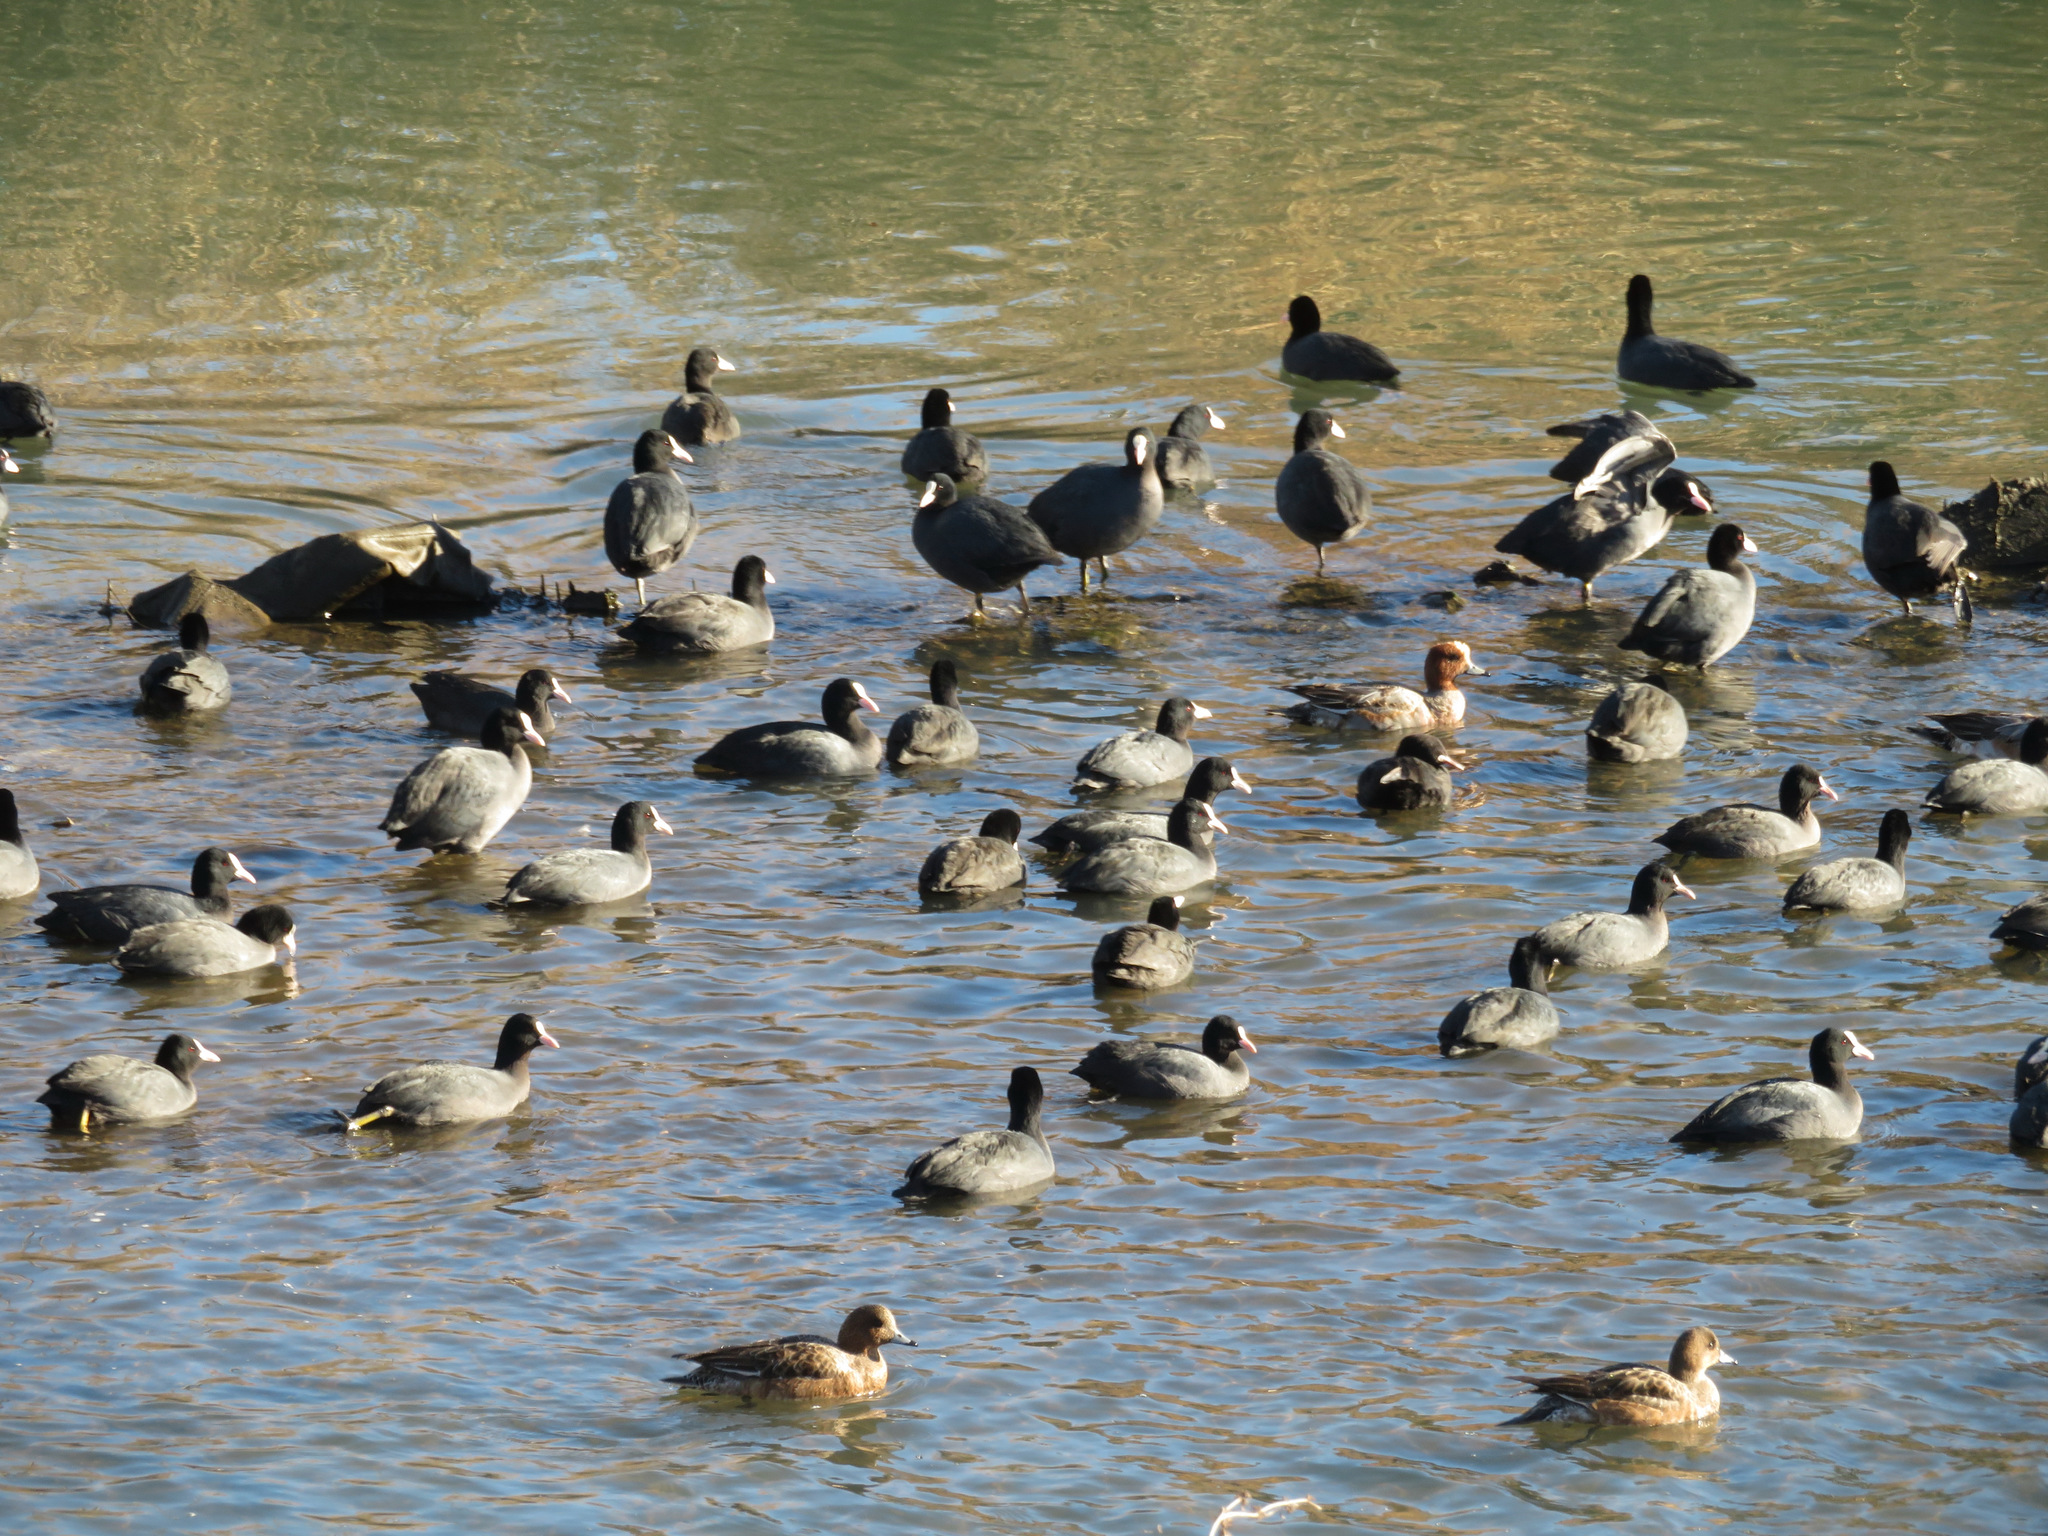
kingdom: Animalia
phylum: Chordata
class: Aves
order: Gruiformes
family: Rallidae
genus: Fulica
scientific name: Fulica atra
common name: Eurasian coot
